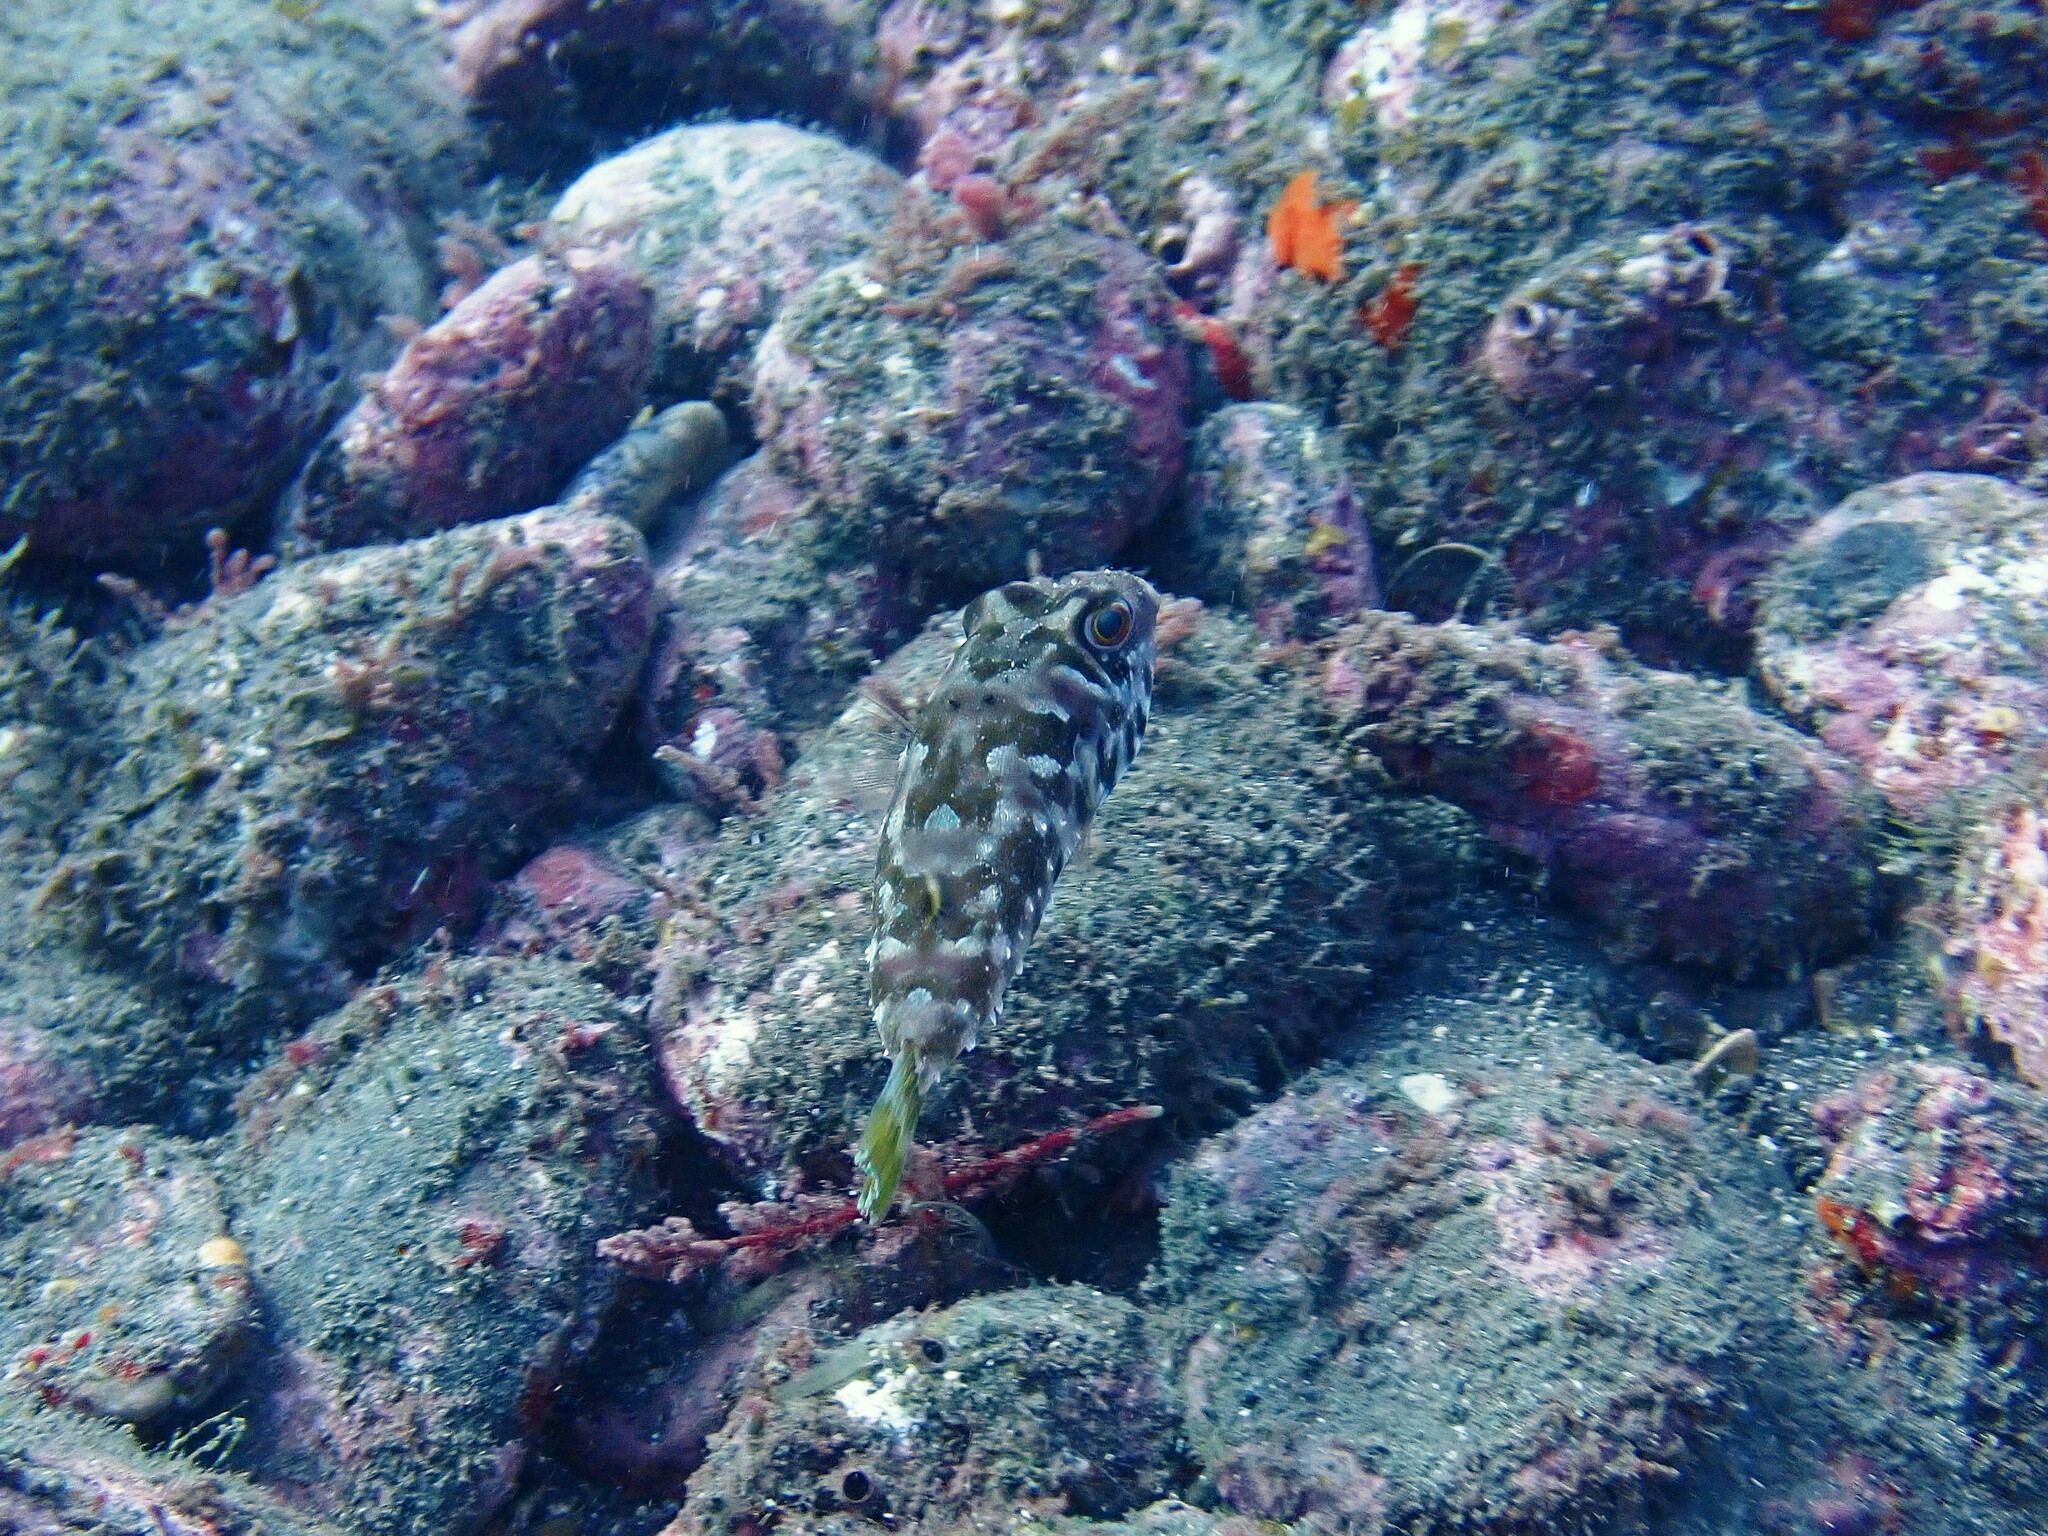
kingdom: Animalia
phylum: Chordata
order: Tetraodontiformes
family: Tetraodontidae
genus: Sphoeroides
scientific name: Sphoeroides marmoratus
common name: Guinean puffer
